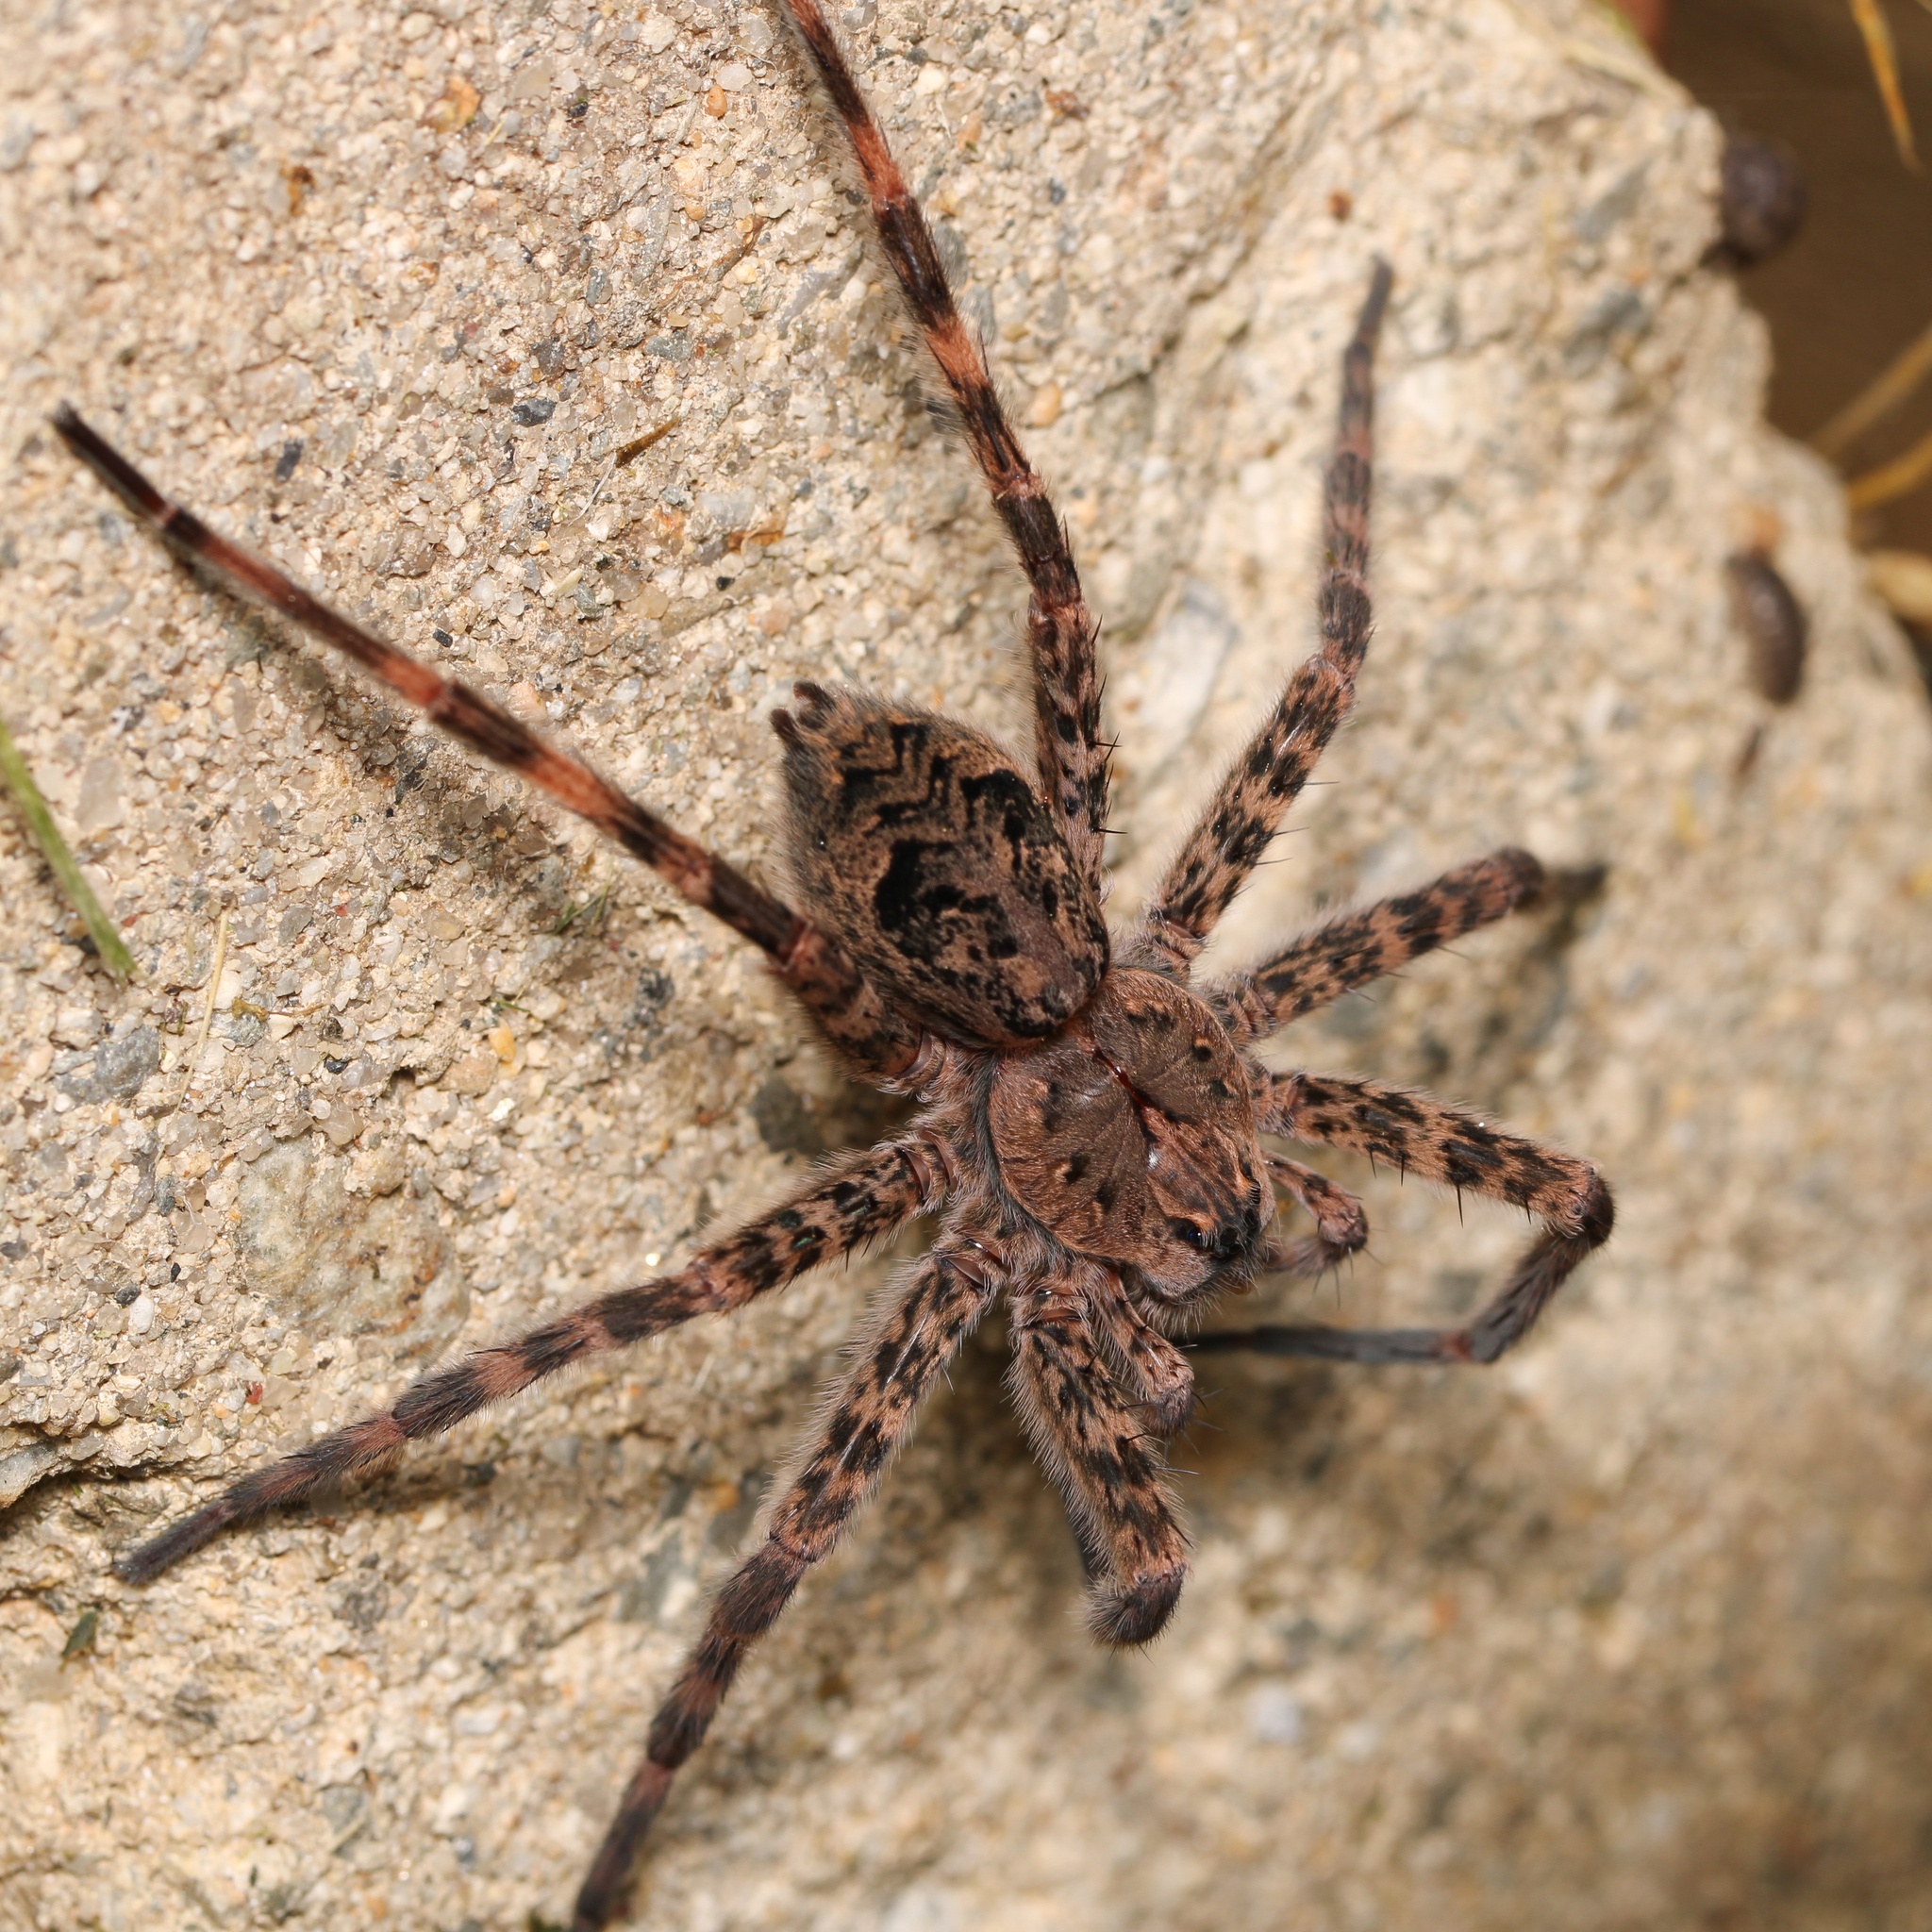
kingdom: Animalia
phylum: Arthropoda
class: Arachnida
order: Araneae
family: Pisauridae
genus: Dolomedes
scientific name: Dolomedes tenebrosus
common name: Dark fishing spider
